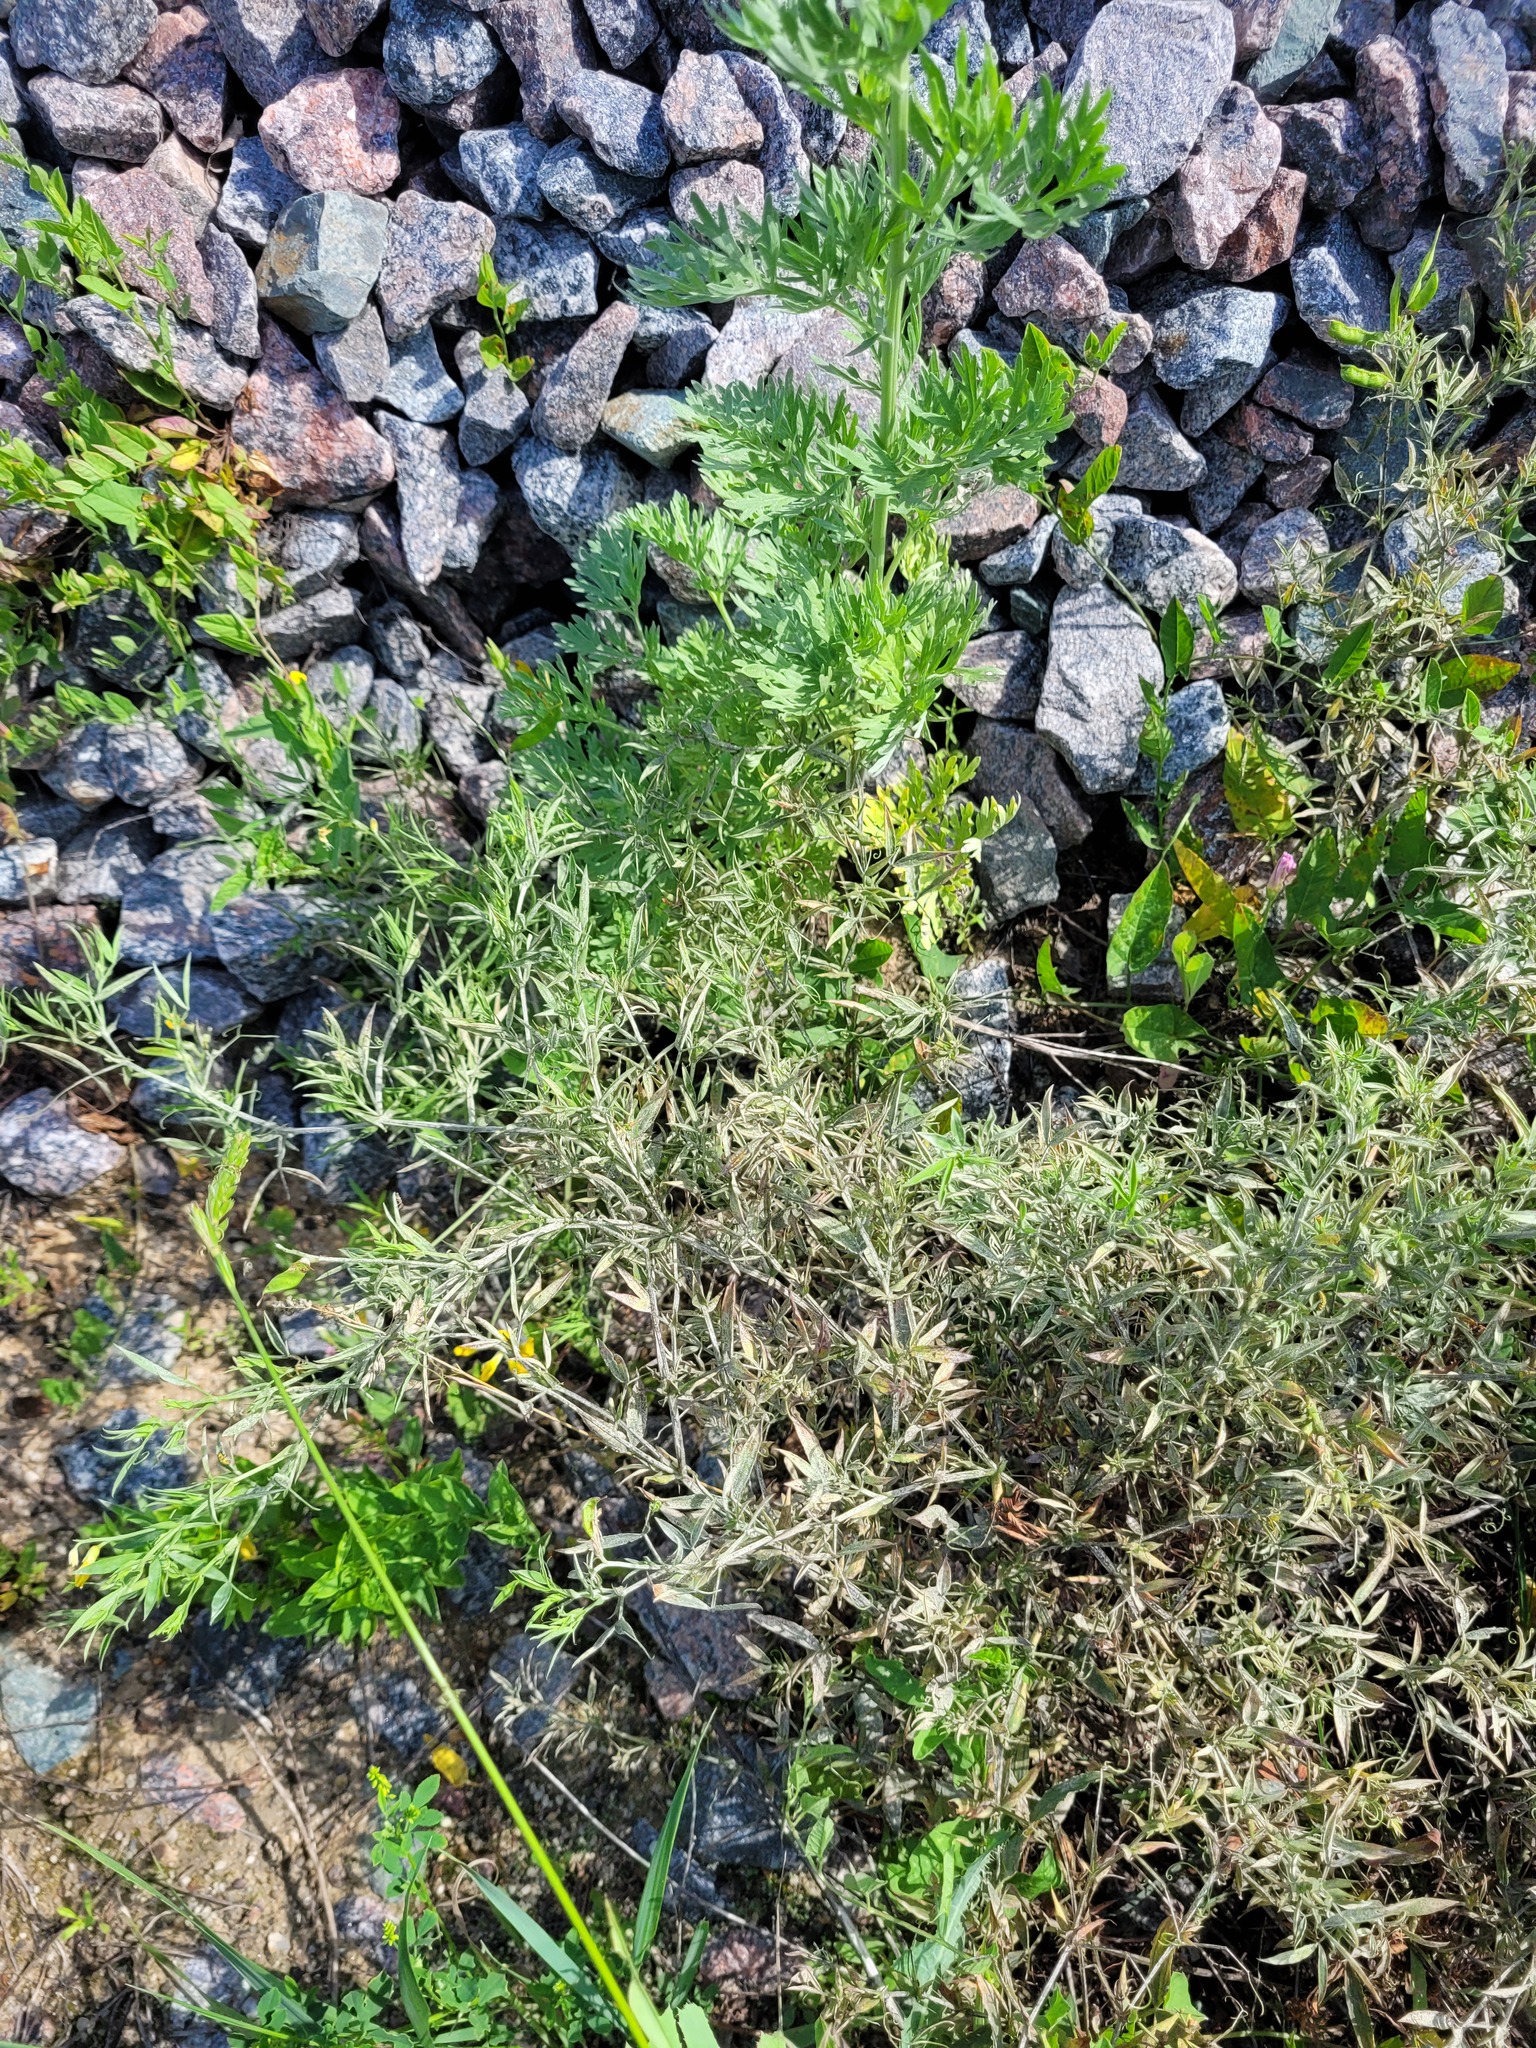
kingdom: Plantae
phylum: Tracheophyta
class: Magnoliopsida
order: Fabales
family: Fabaceae
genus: Lathyrus
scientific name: Lathyrus pratensis
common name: Meadow vetchling
